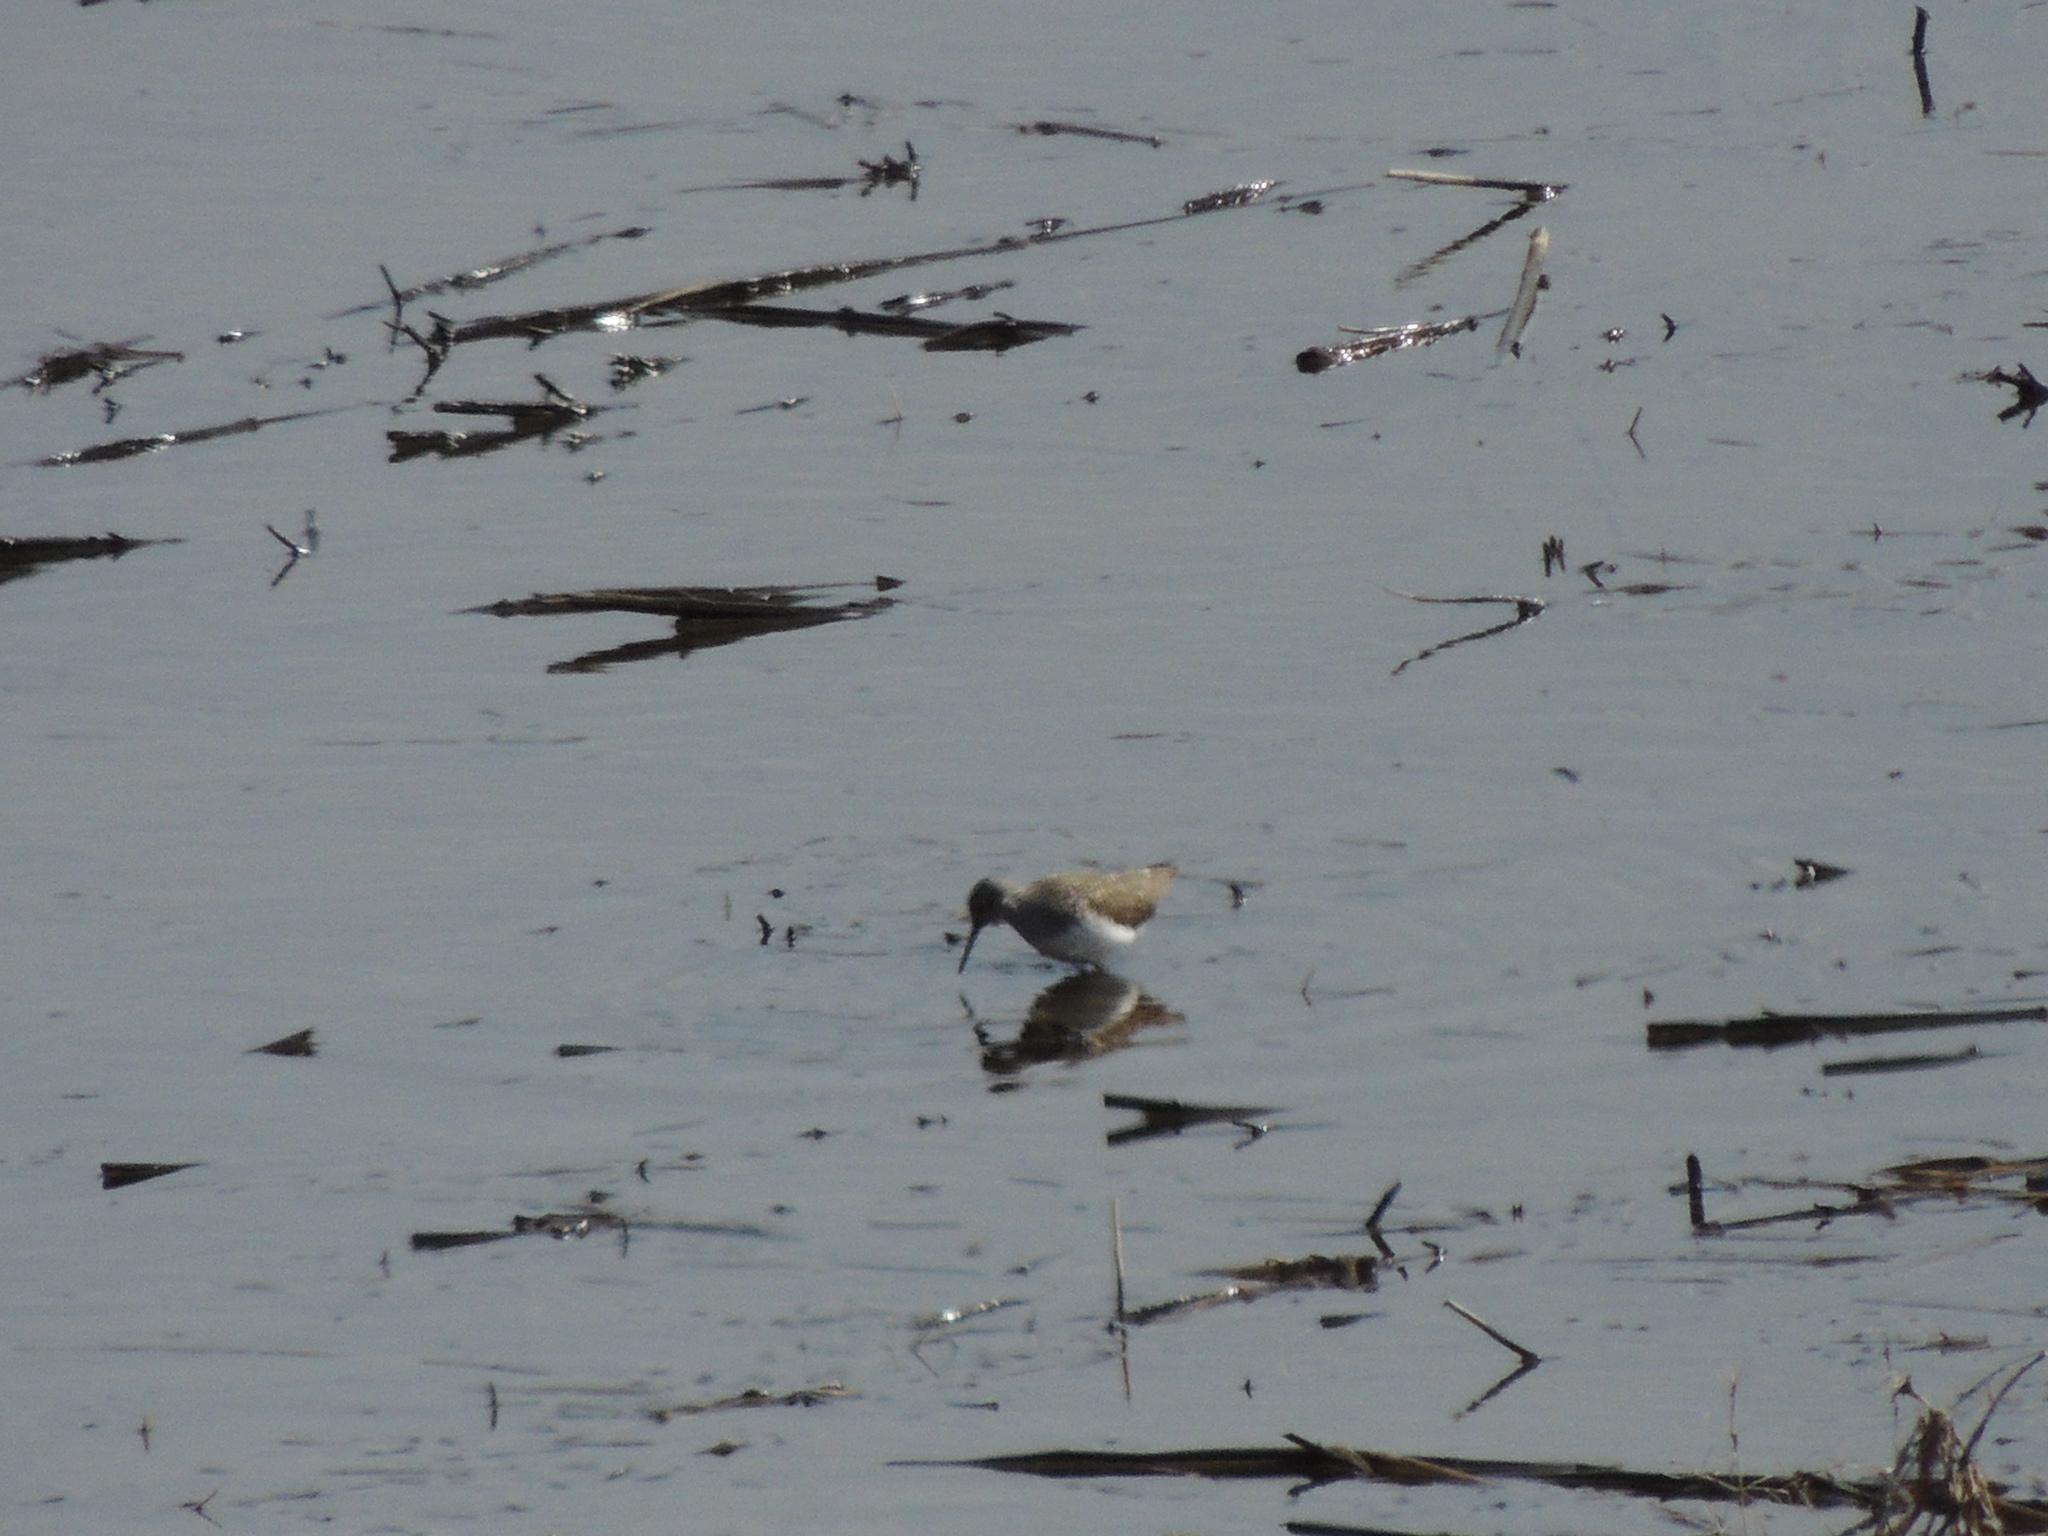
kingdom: Animalia
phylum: Chordata
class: Aves
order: Charadriiformes
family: Scolopacidae
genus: Tringa
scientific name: Tringa totanus
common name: Common redshank
